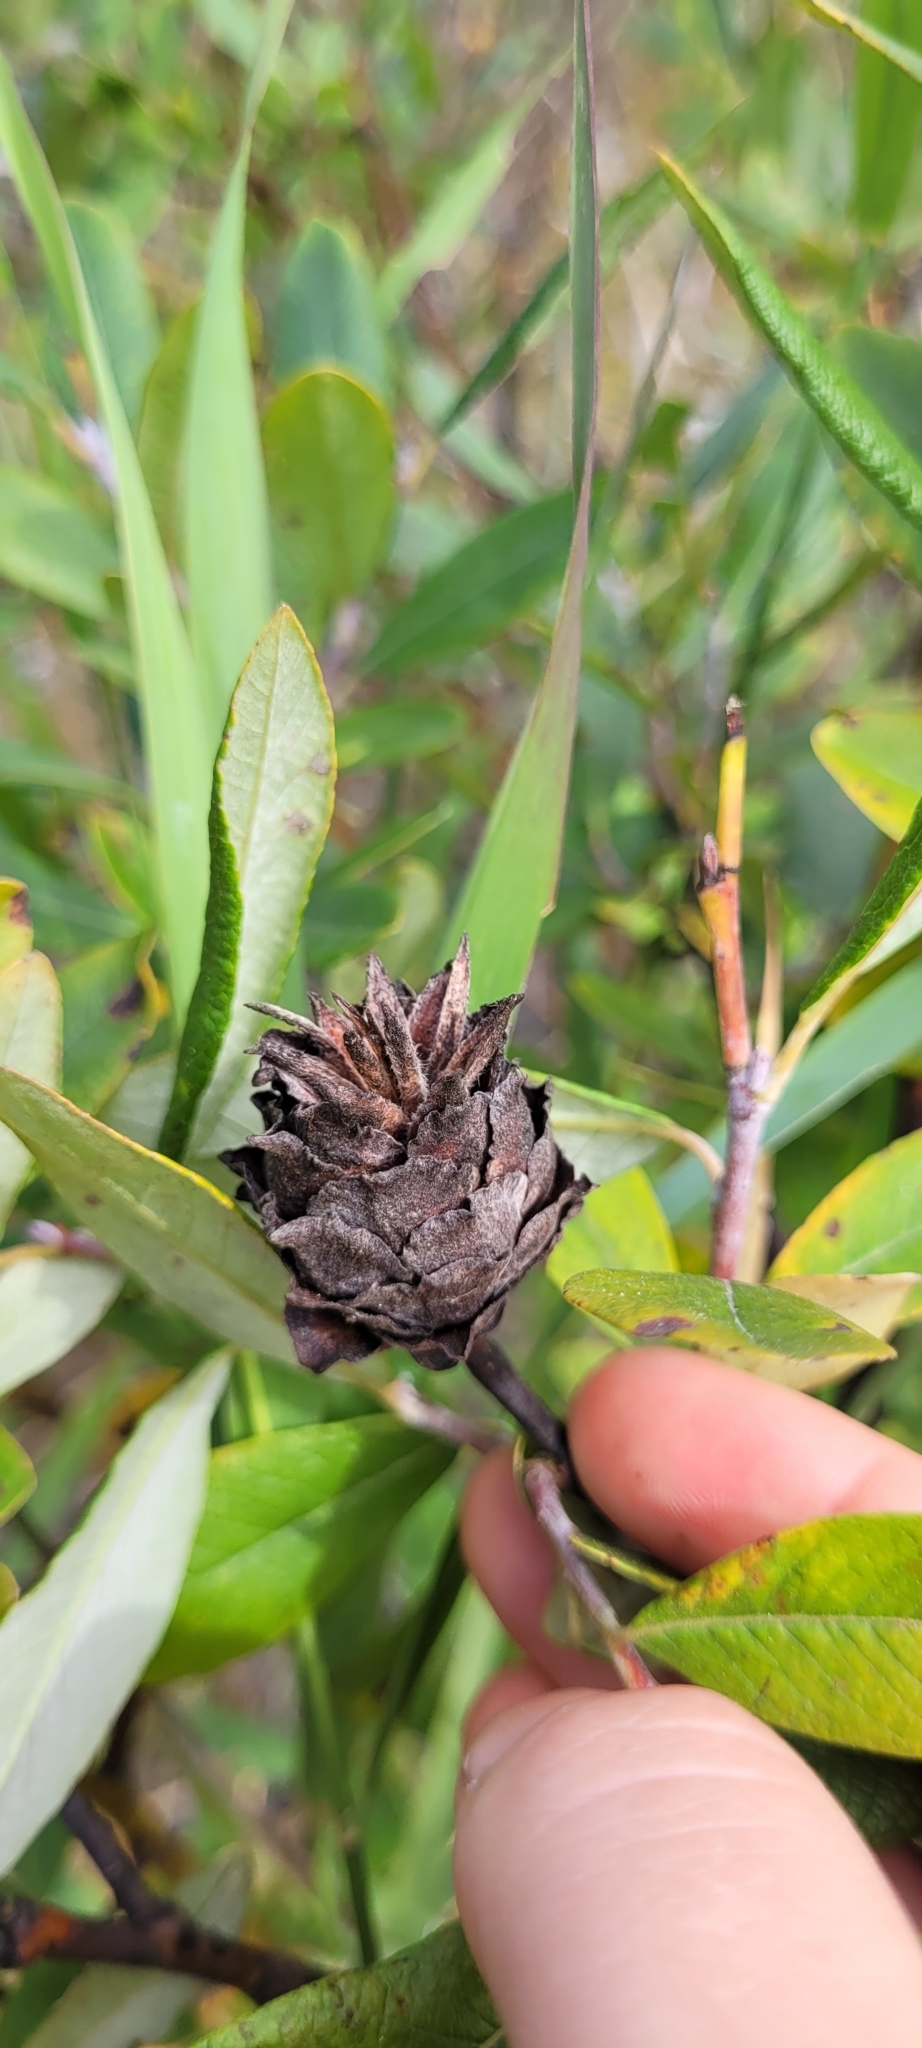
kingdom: Animalia
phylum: Arthropoda
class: Insecta
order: Diptera
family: Cecidomyiidae
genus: Rabdophaga
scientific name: Rabdophaga salicisbrassicoides
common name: Willow cabbagegall midge
